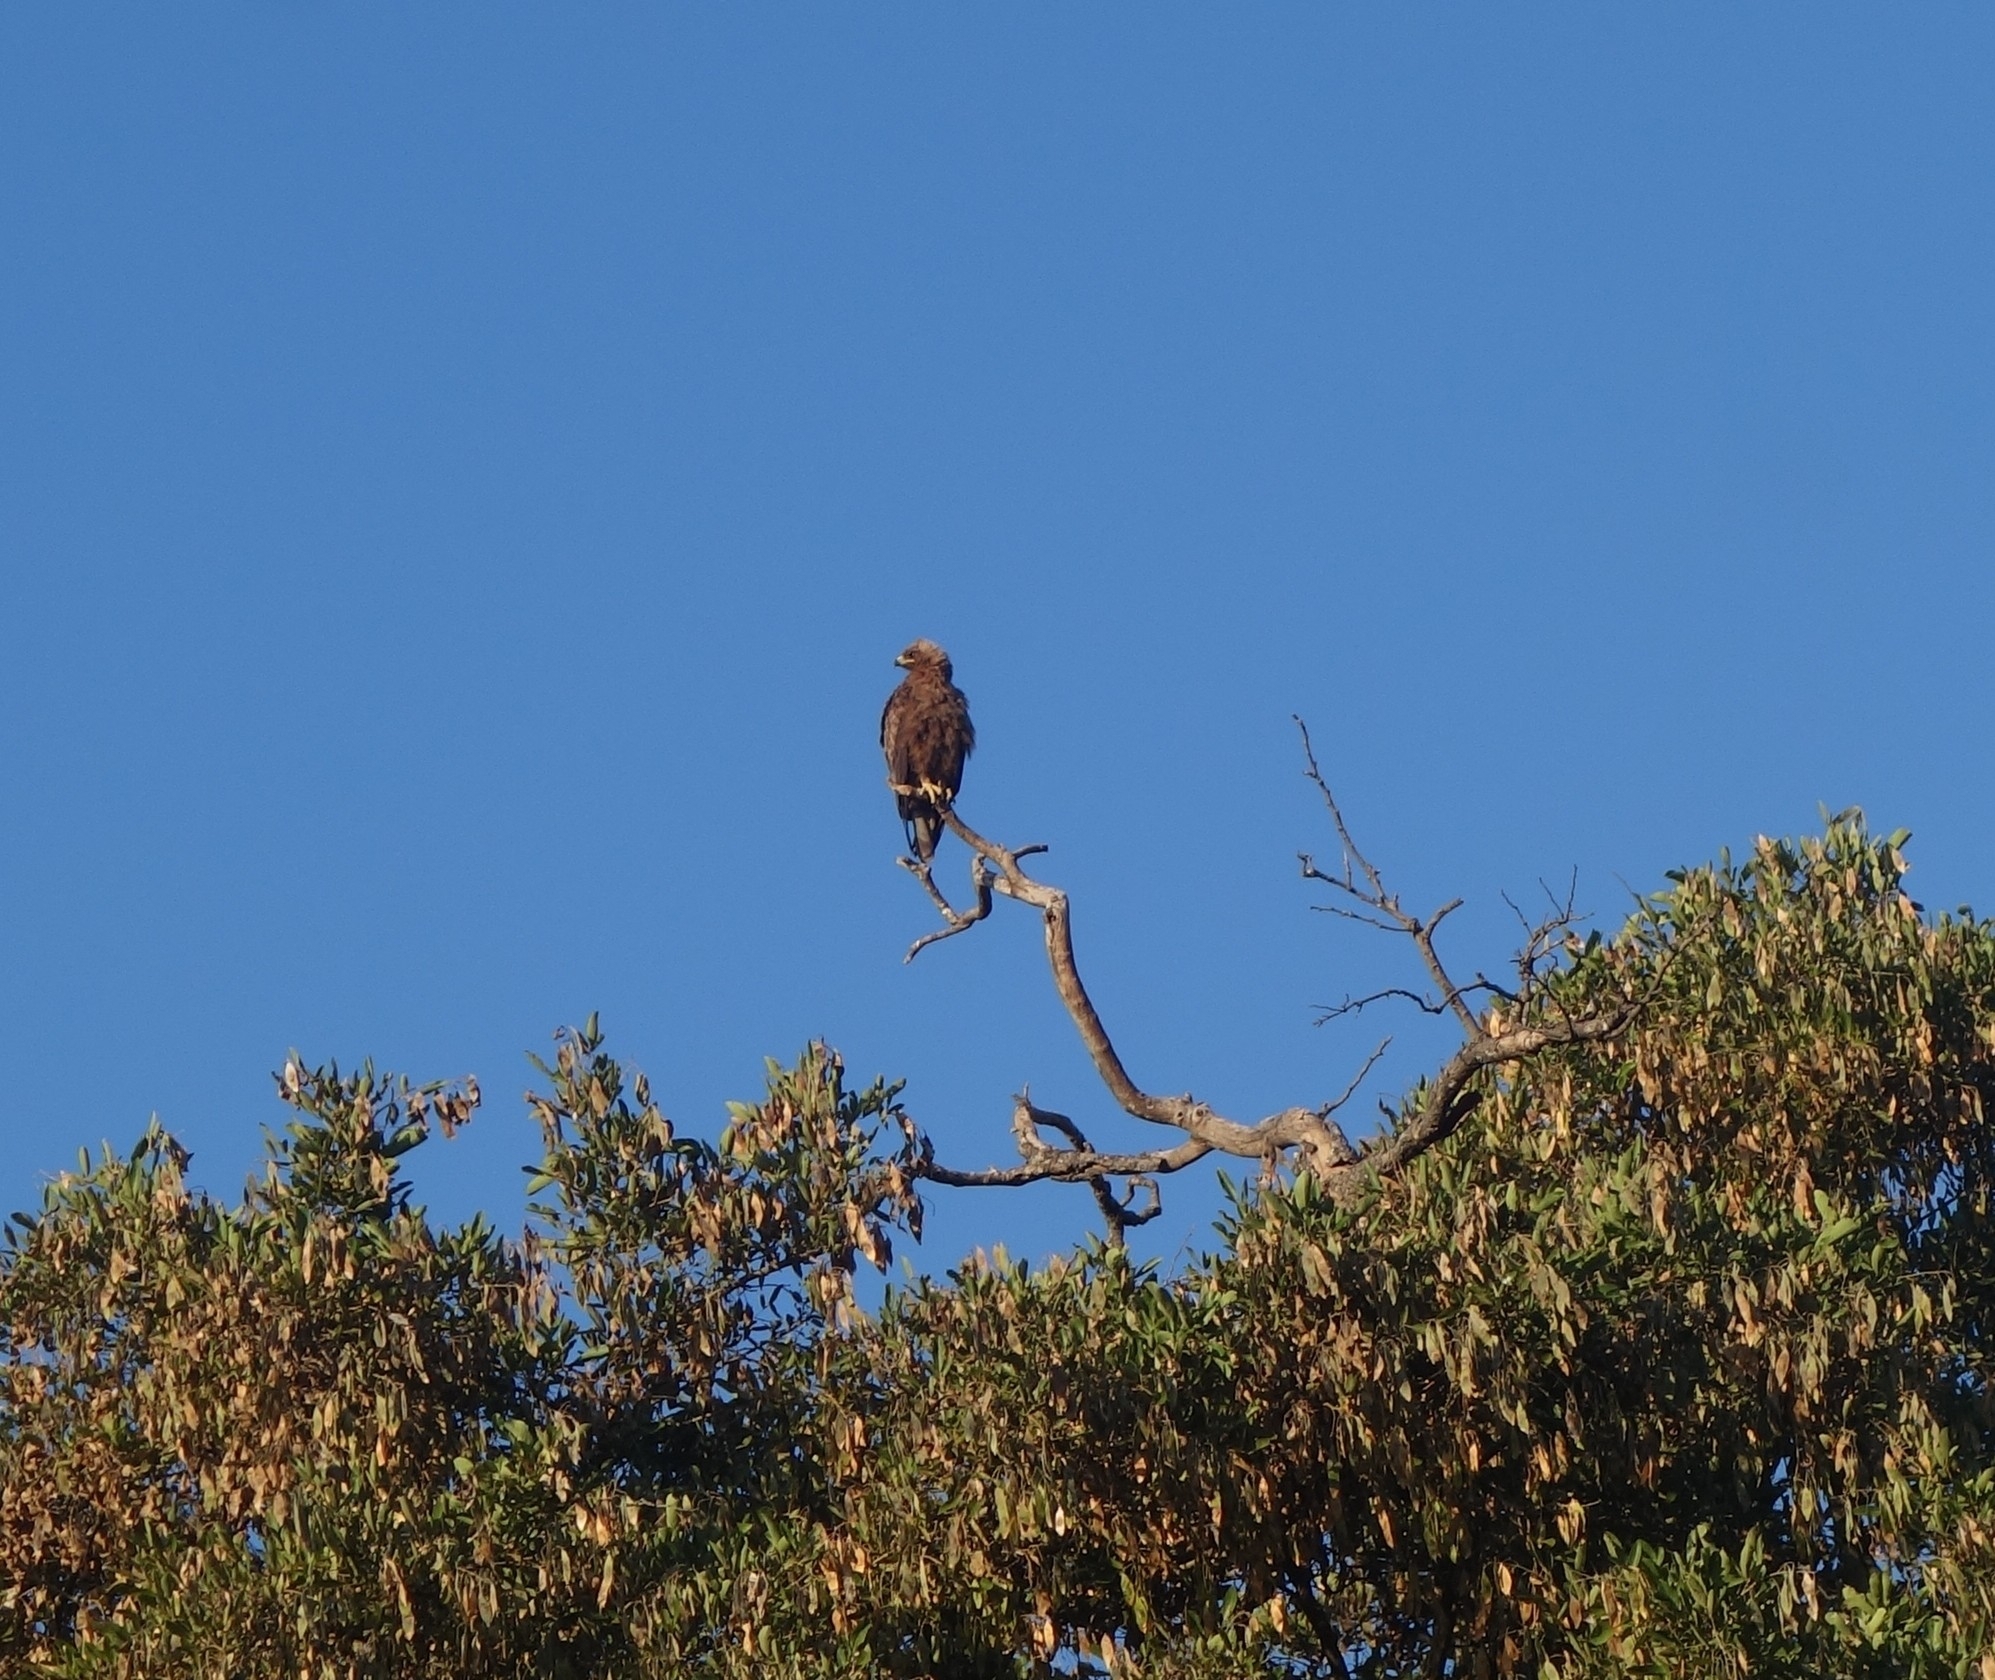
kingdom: Animalia
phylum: Chordata
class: Aves
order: Accipitriformes
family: Accipitridae
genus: Hieraaetus
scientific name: Hieraaetus wahlbergi
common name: Wahlberg's eagle
